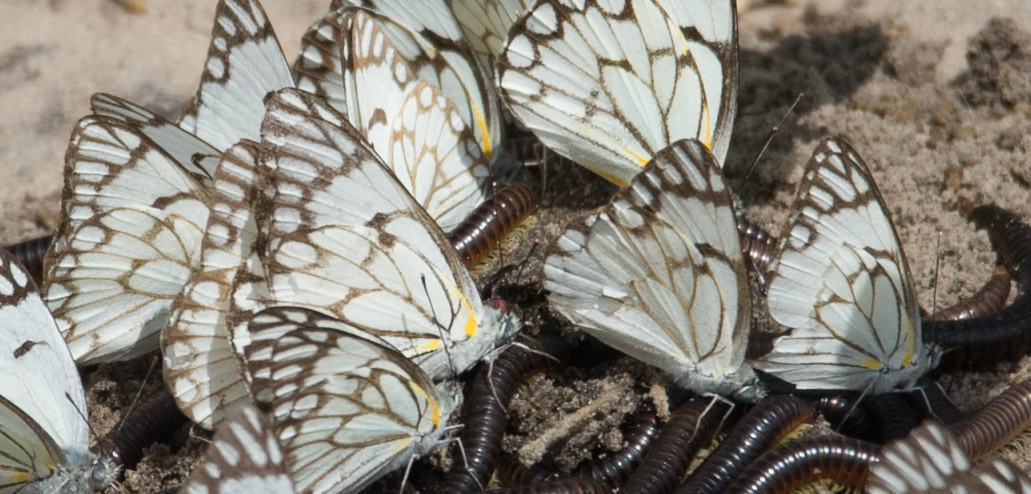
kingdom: Animalia
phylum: Arthropoda
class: Insecta
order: Lepidoptera
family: Pieridae
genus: Belenois
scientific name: Belenois aurota
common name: Brown-veined white
